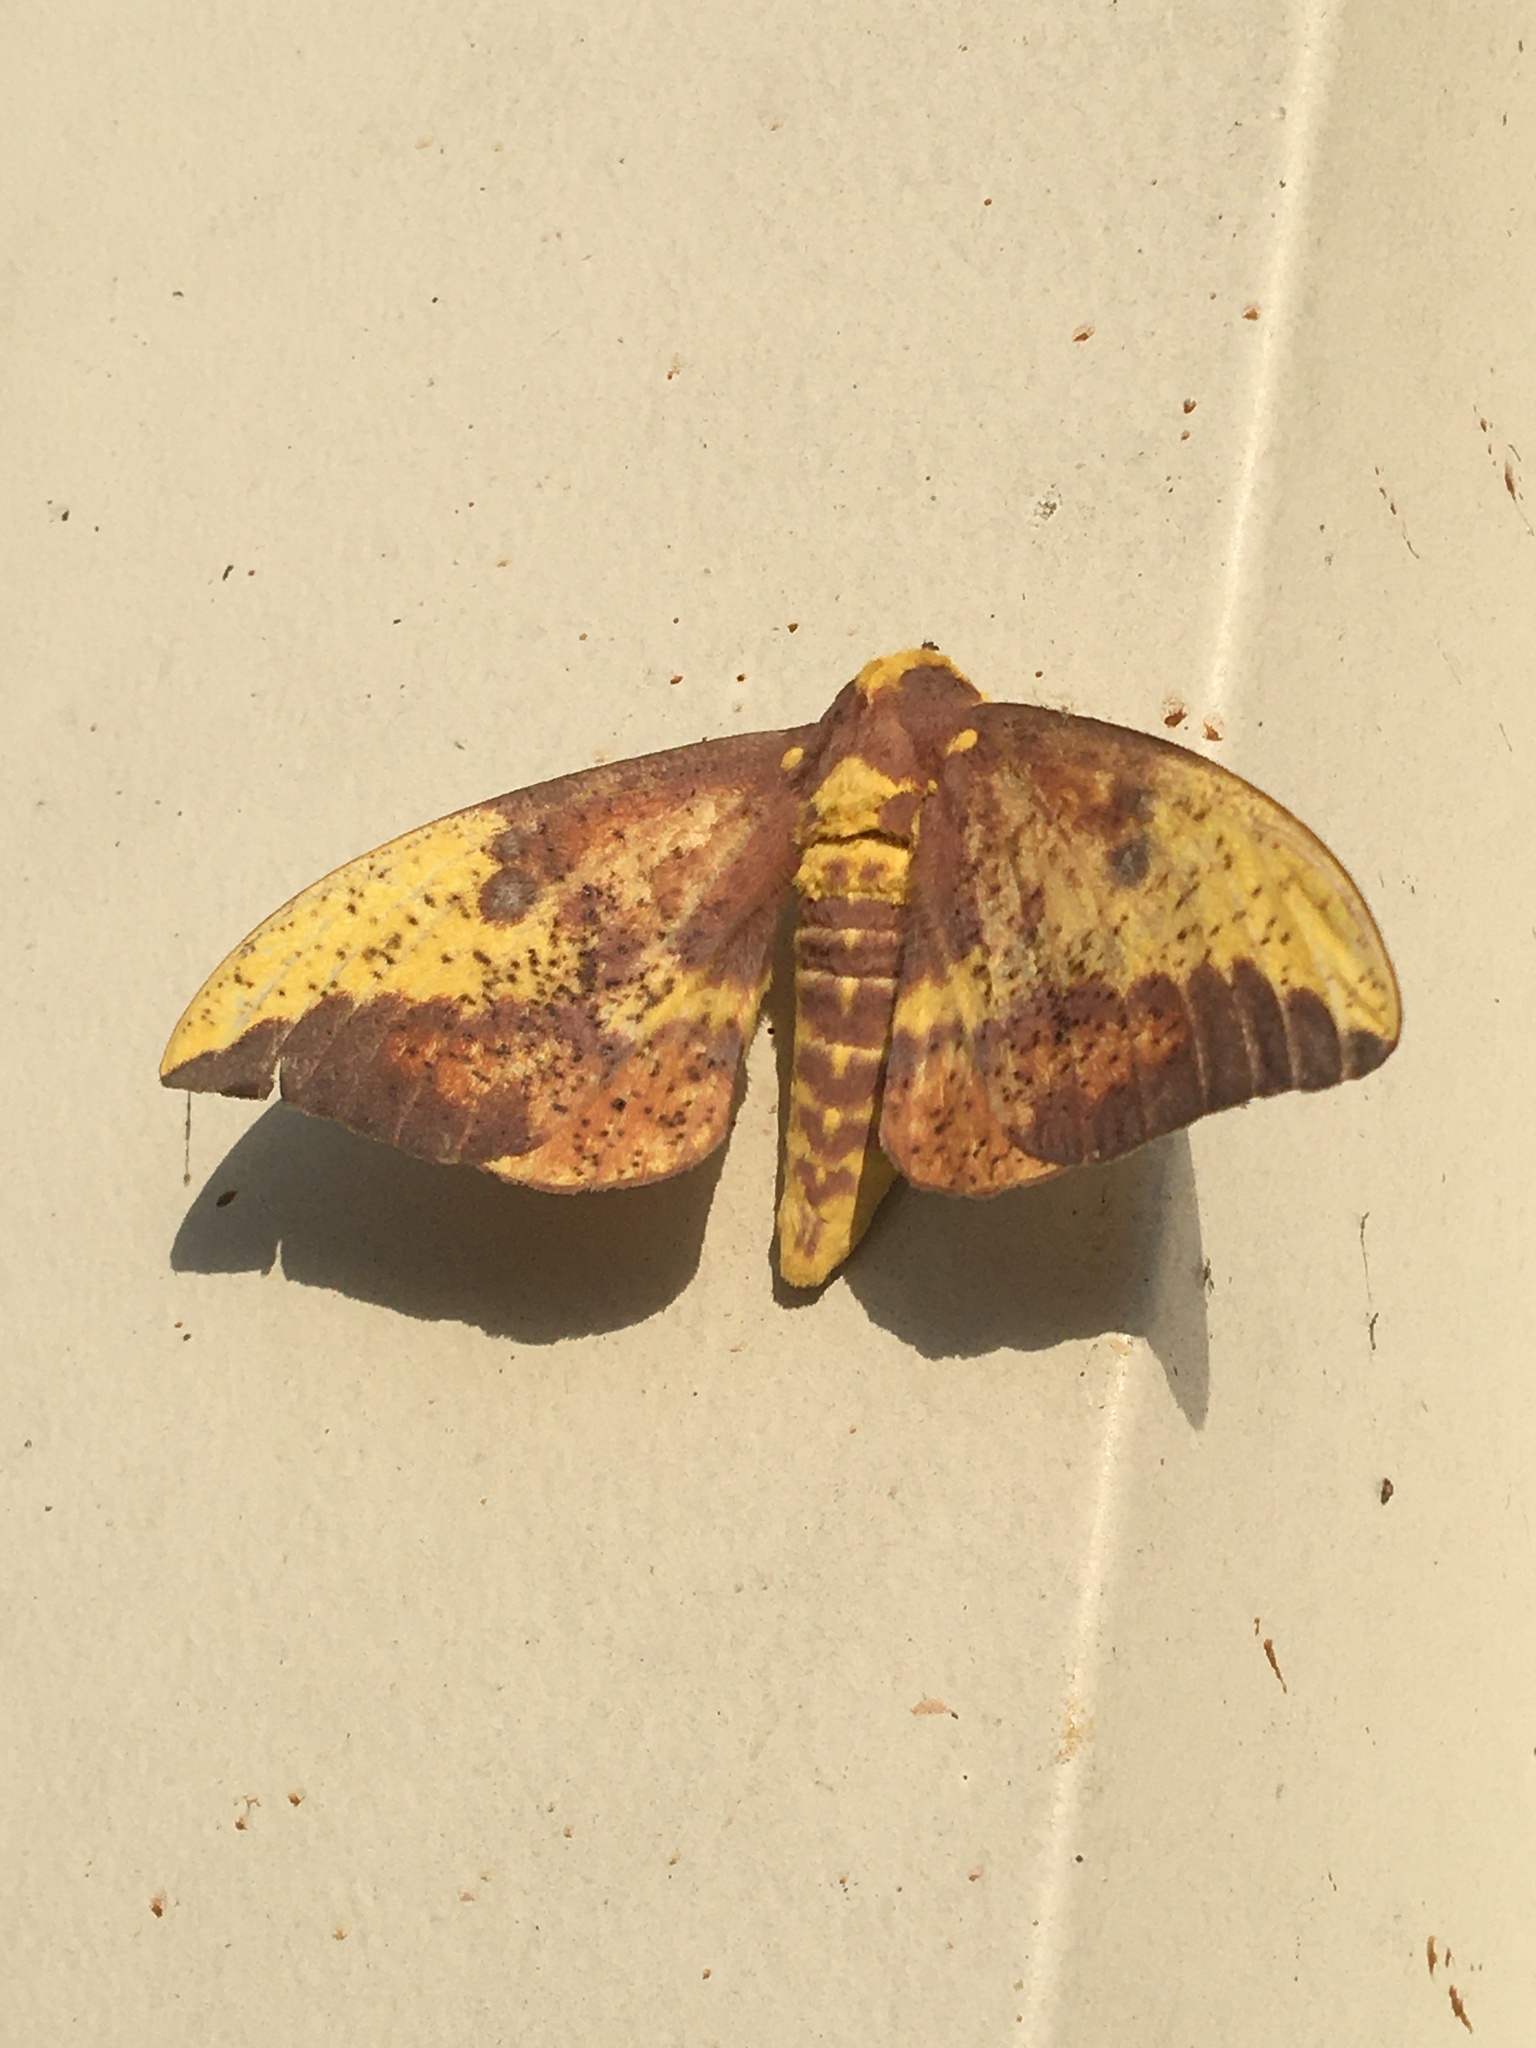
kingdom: Animalia
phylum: Arthropoda
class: Insecta
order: Lepidoptera
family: Saturniidae
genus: Eacles
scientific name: Eacles imperialis
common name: Imperial moth
